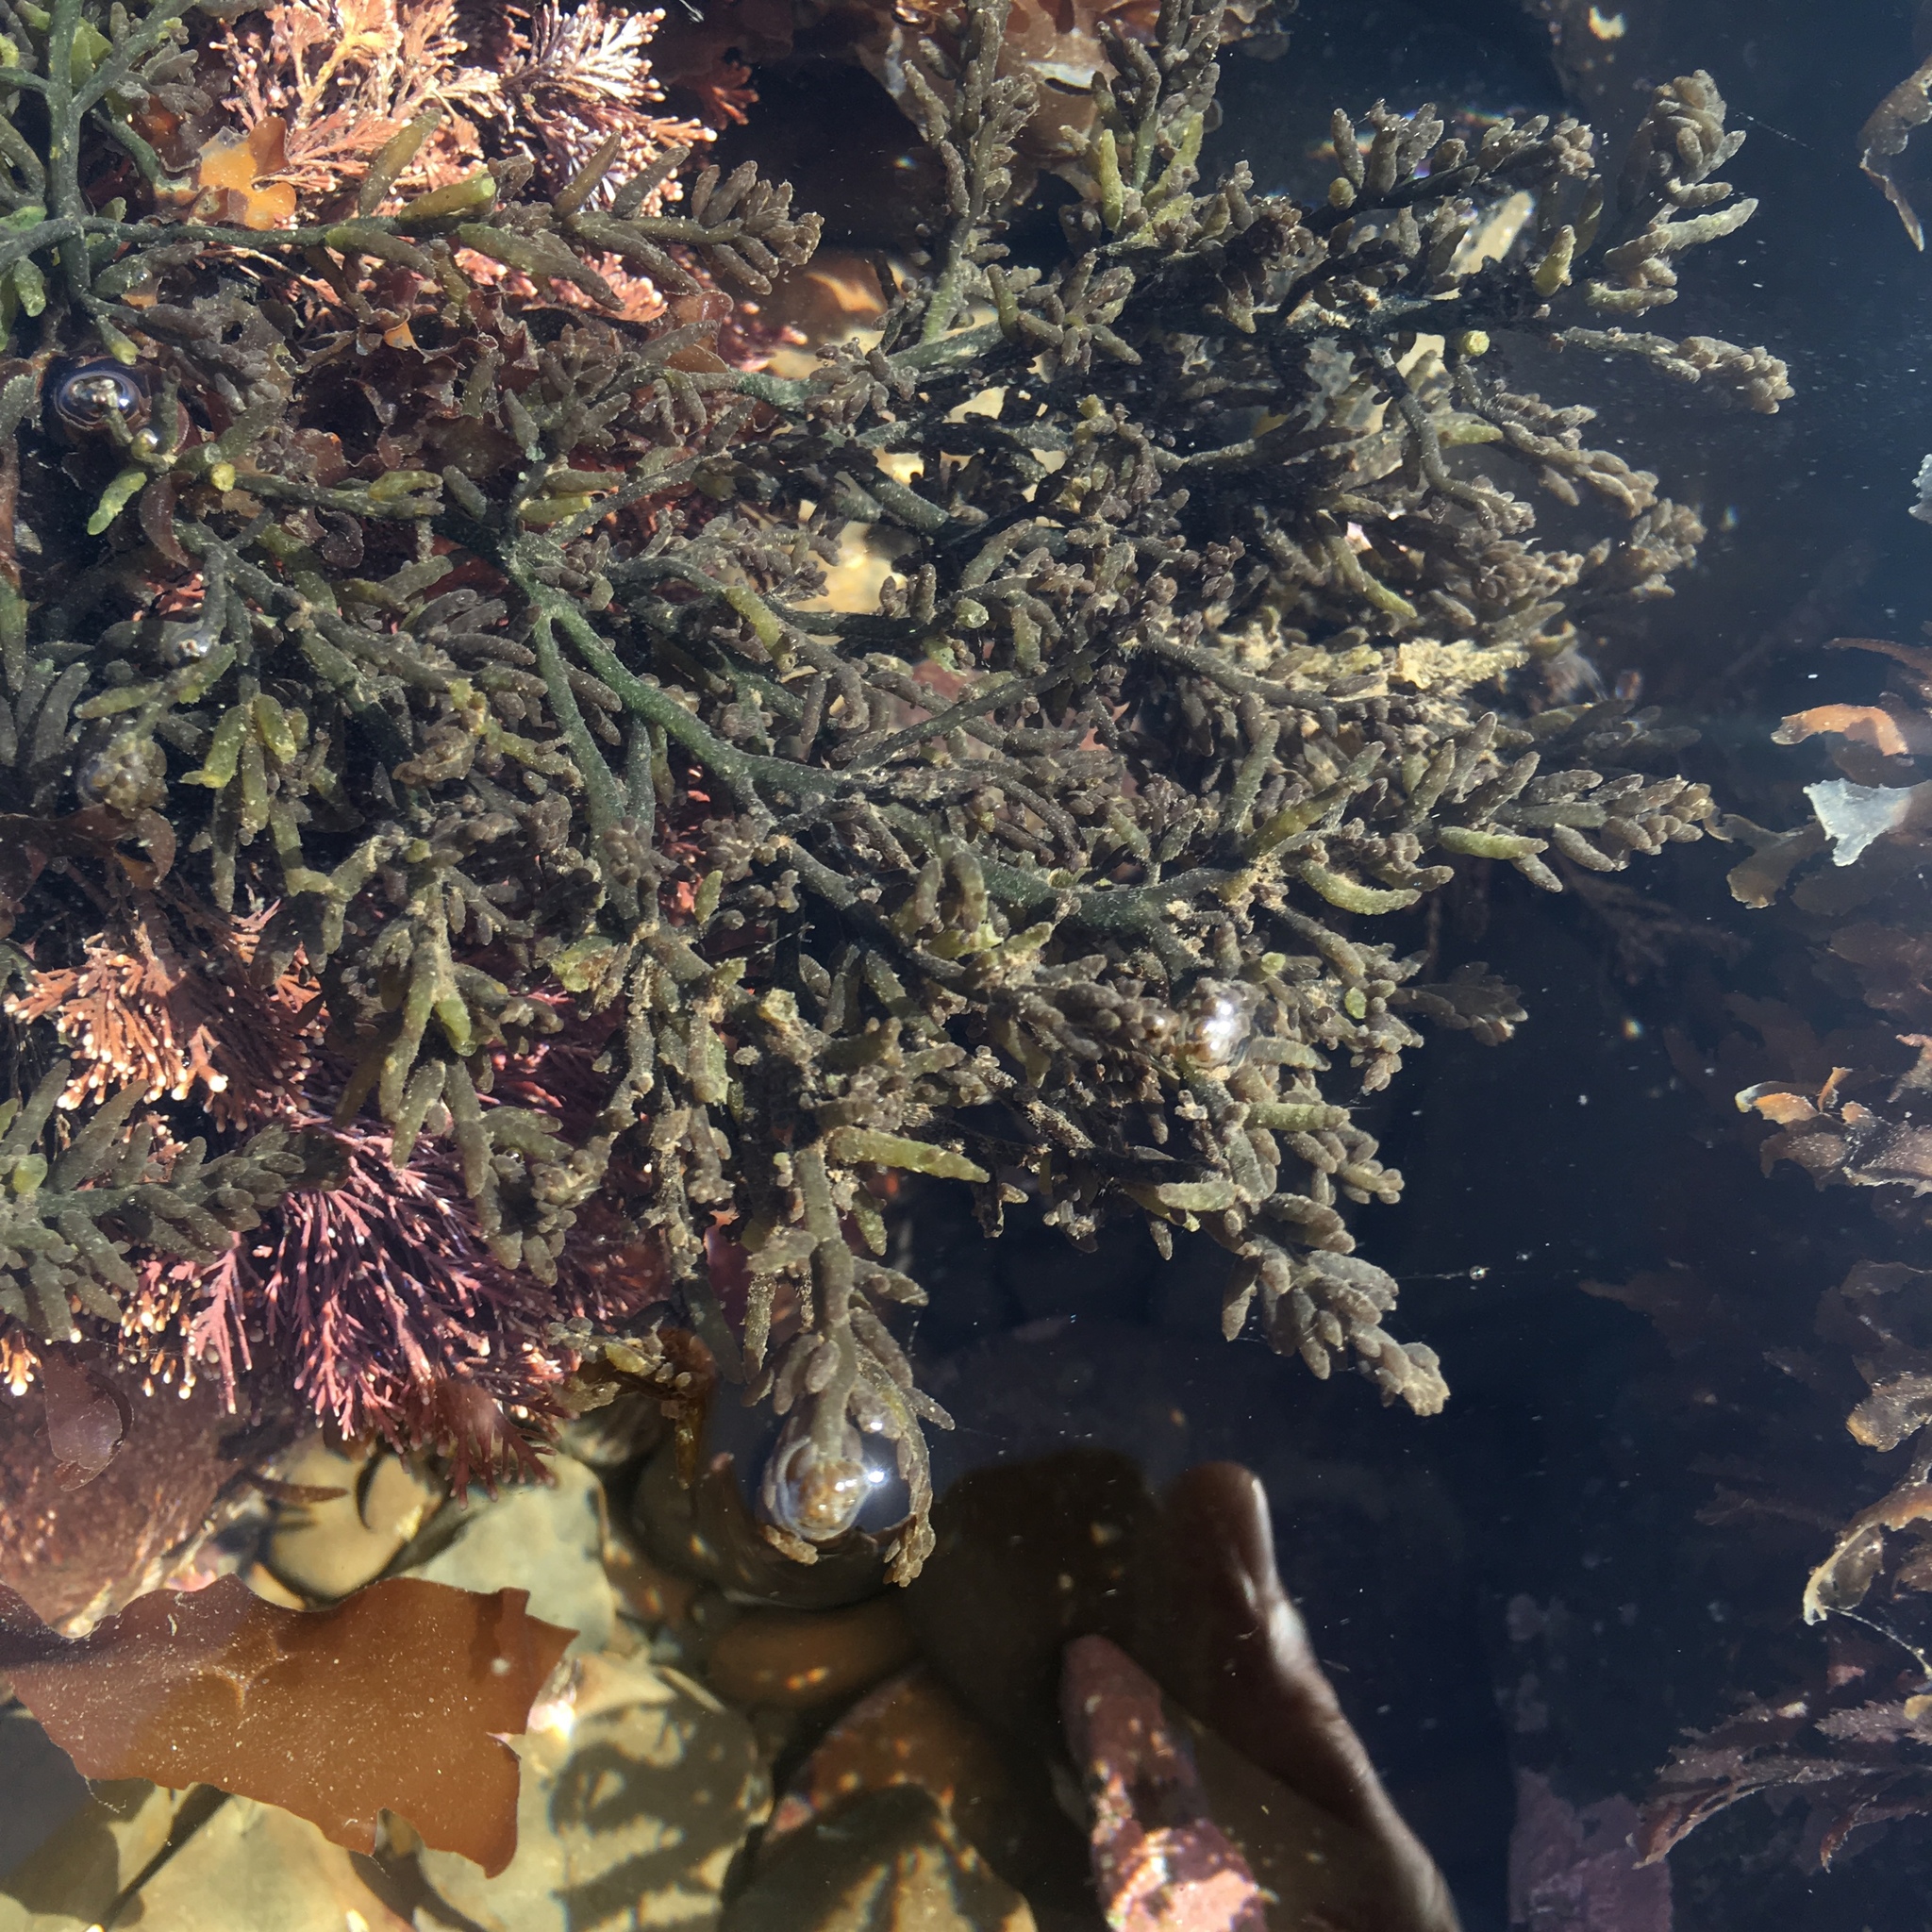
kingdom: Plantae
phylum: Rhodophyta
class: Florideophyceae
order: Rhodymeniales
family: Champiaceae
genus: Neogastroclonium
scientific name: Neogastroclonium subarticulatum
